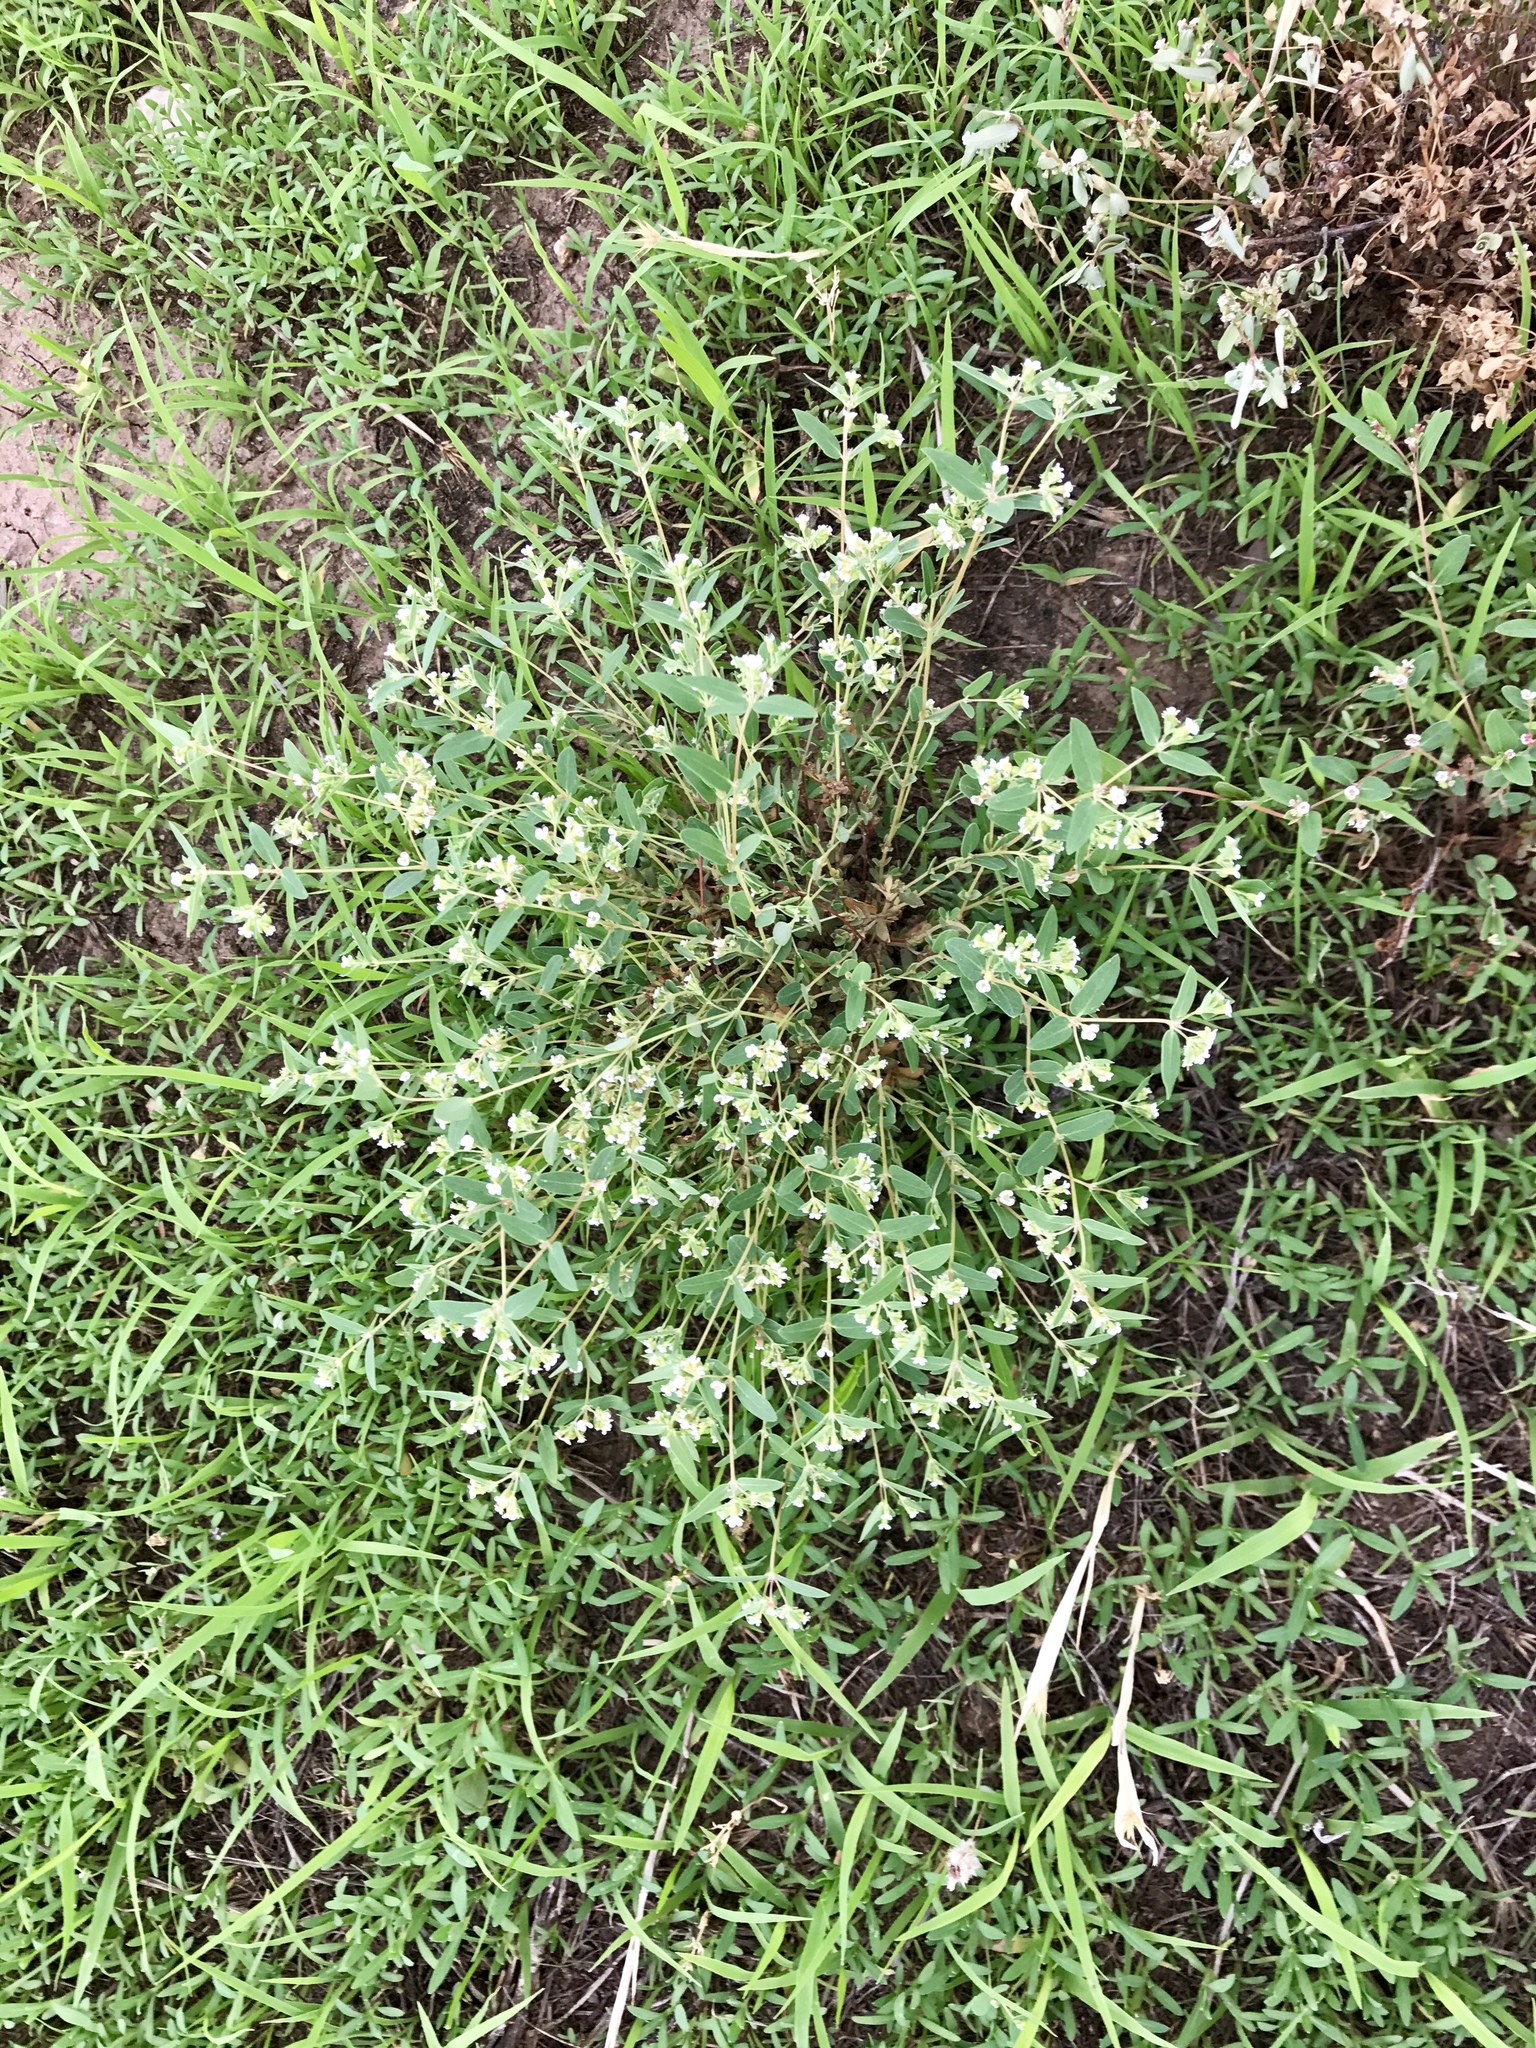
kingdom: Plantae
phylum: Tracheophyta
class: Magnoliopsida
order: Malpighiales
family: Euphorbiaceae
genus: Euphorbia
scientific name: Euphorbia capitellata
